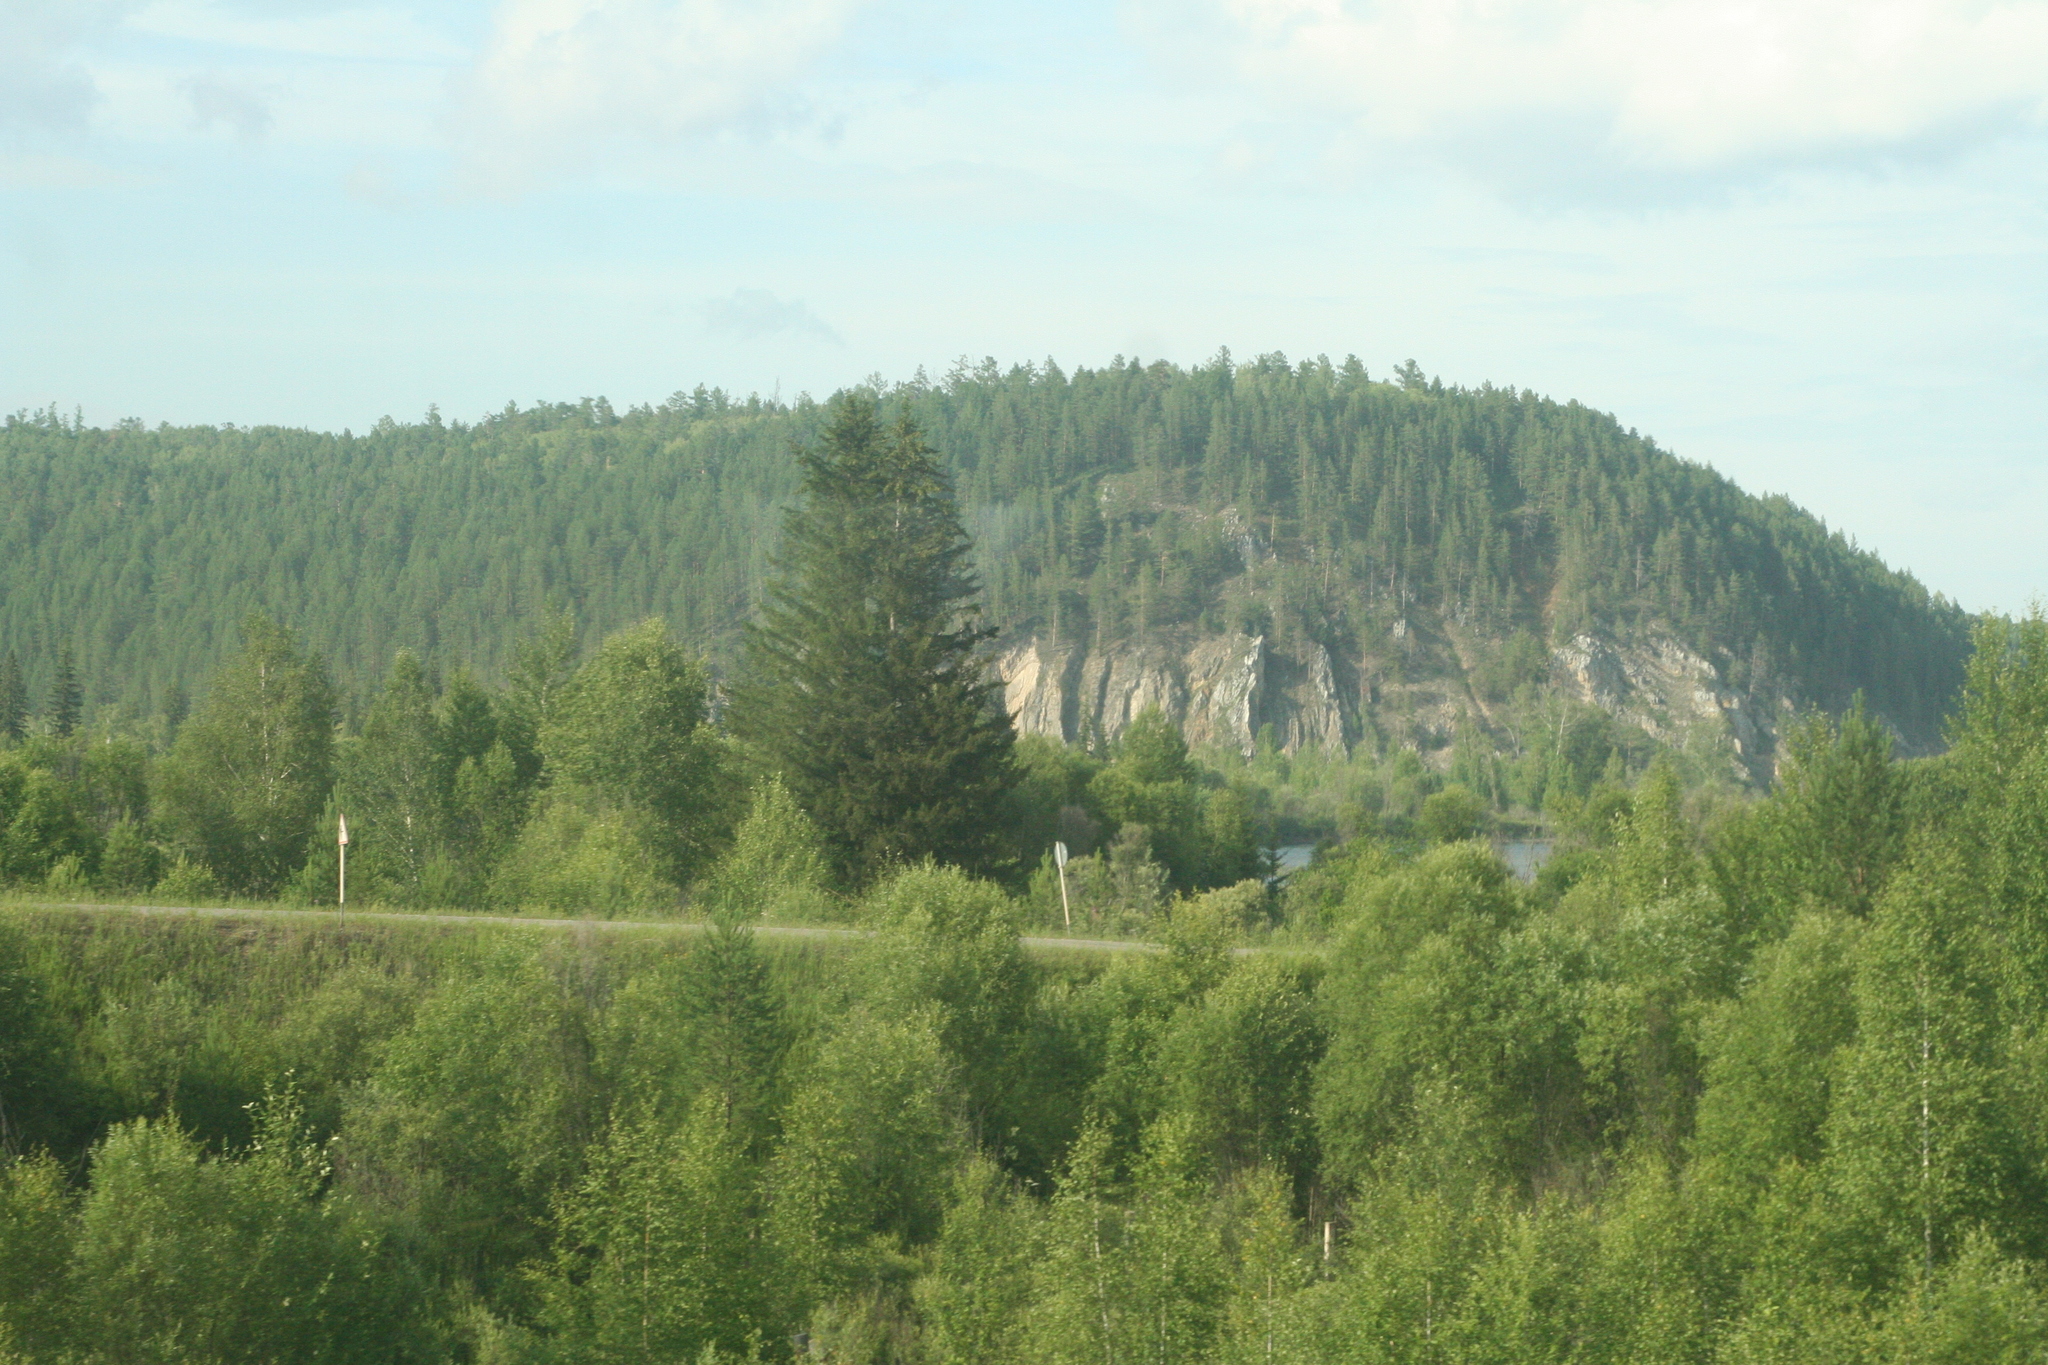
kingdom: Plantae
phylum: Tracheophyta
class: Pinopsida
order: Pinales
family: Pinaceae
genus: Picea
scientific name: Picea obovata
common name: Siberian spruce
